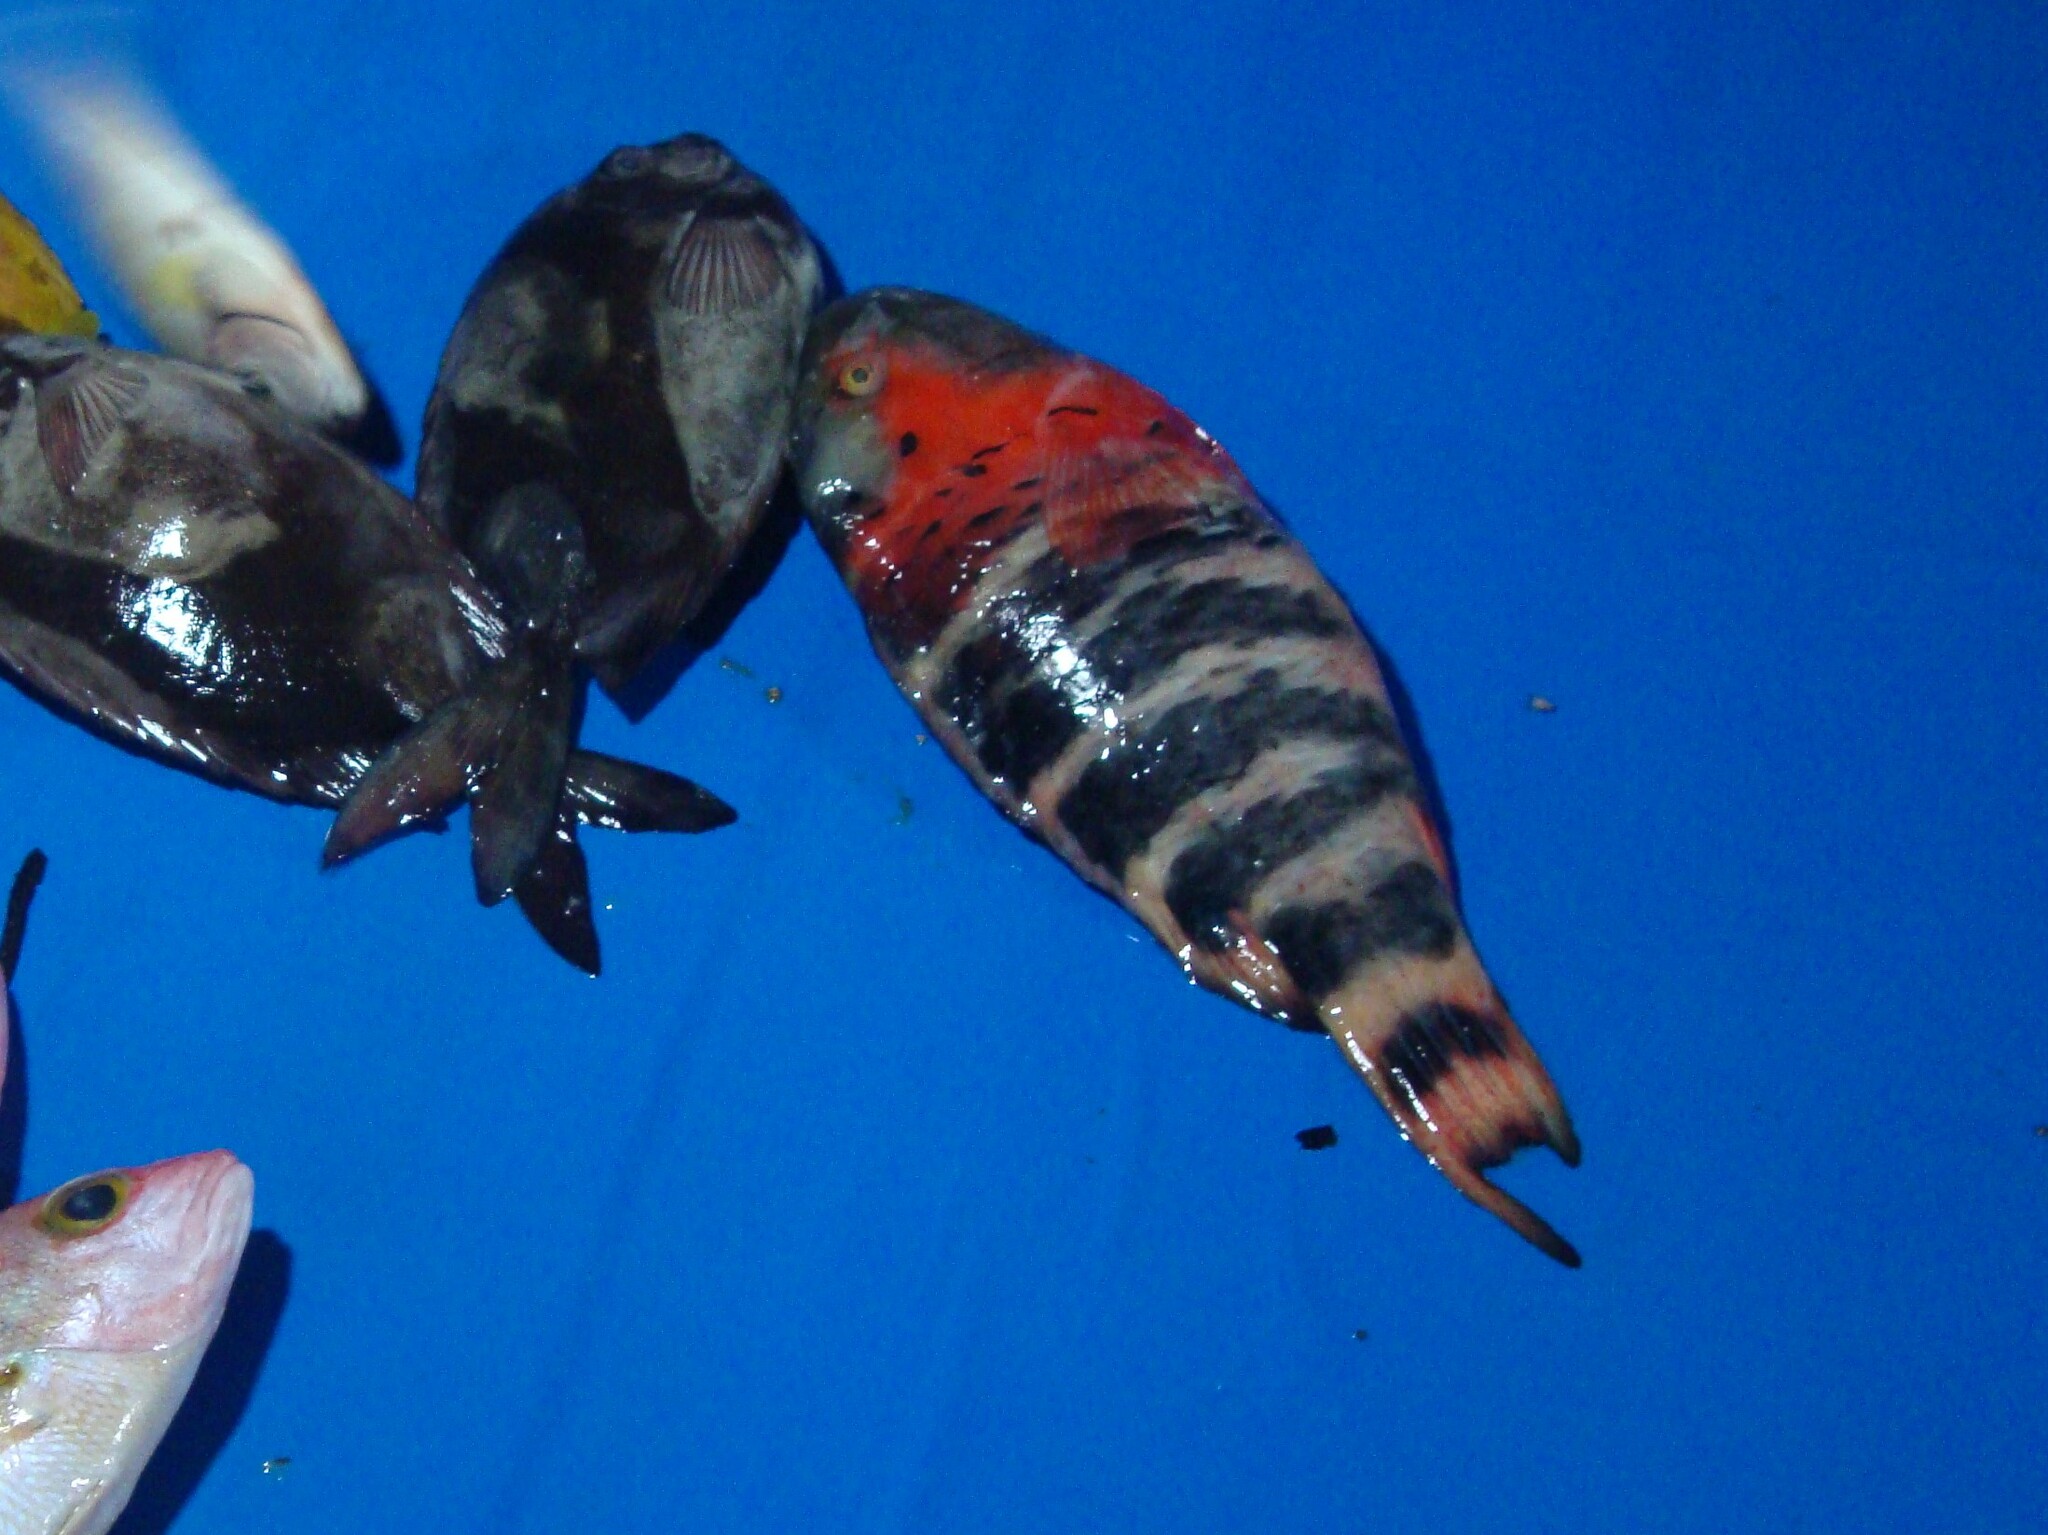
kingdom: Animalia
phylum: Chordata
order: Perciformes
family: Labridae
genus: Cheilinus
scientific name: Cheilinus fasciatus
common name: Red-breasted wrasse
